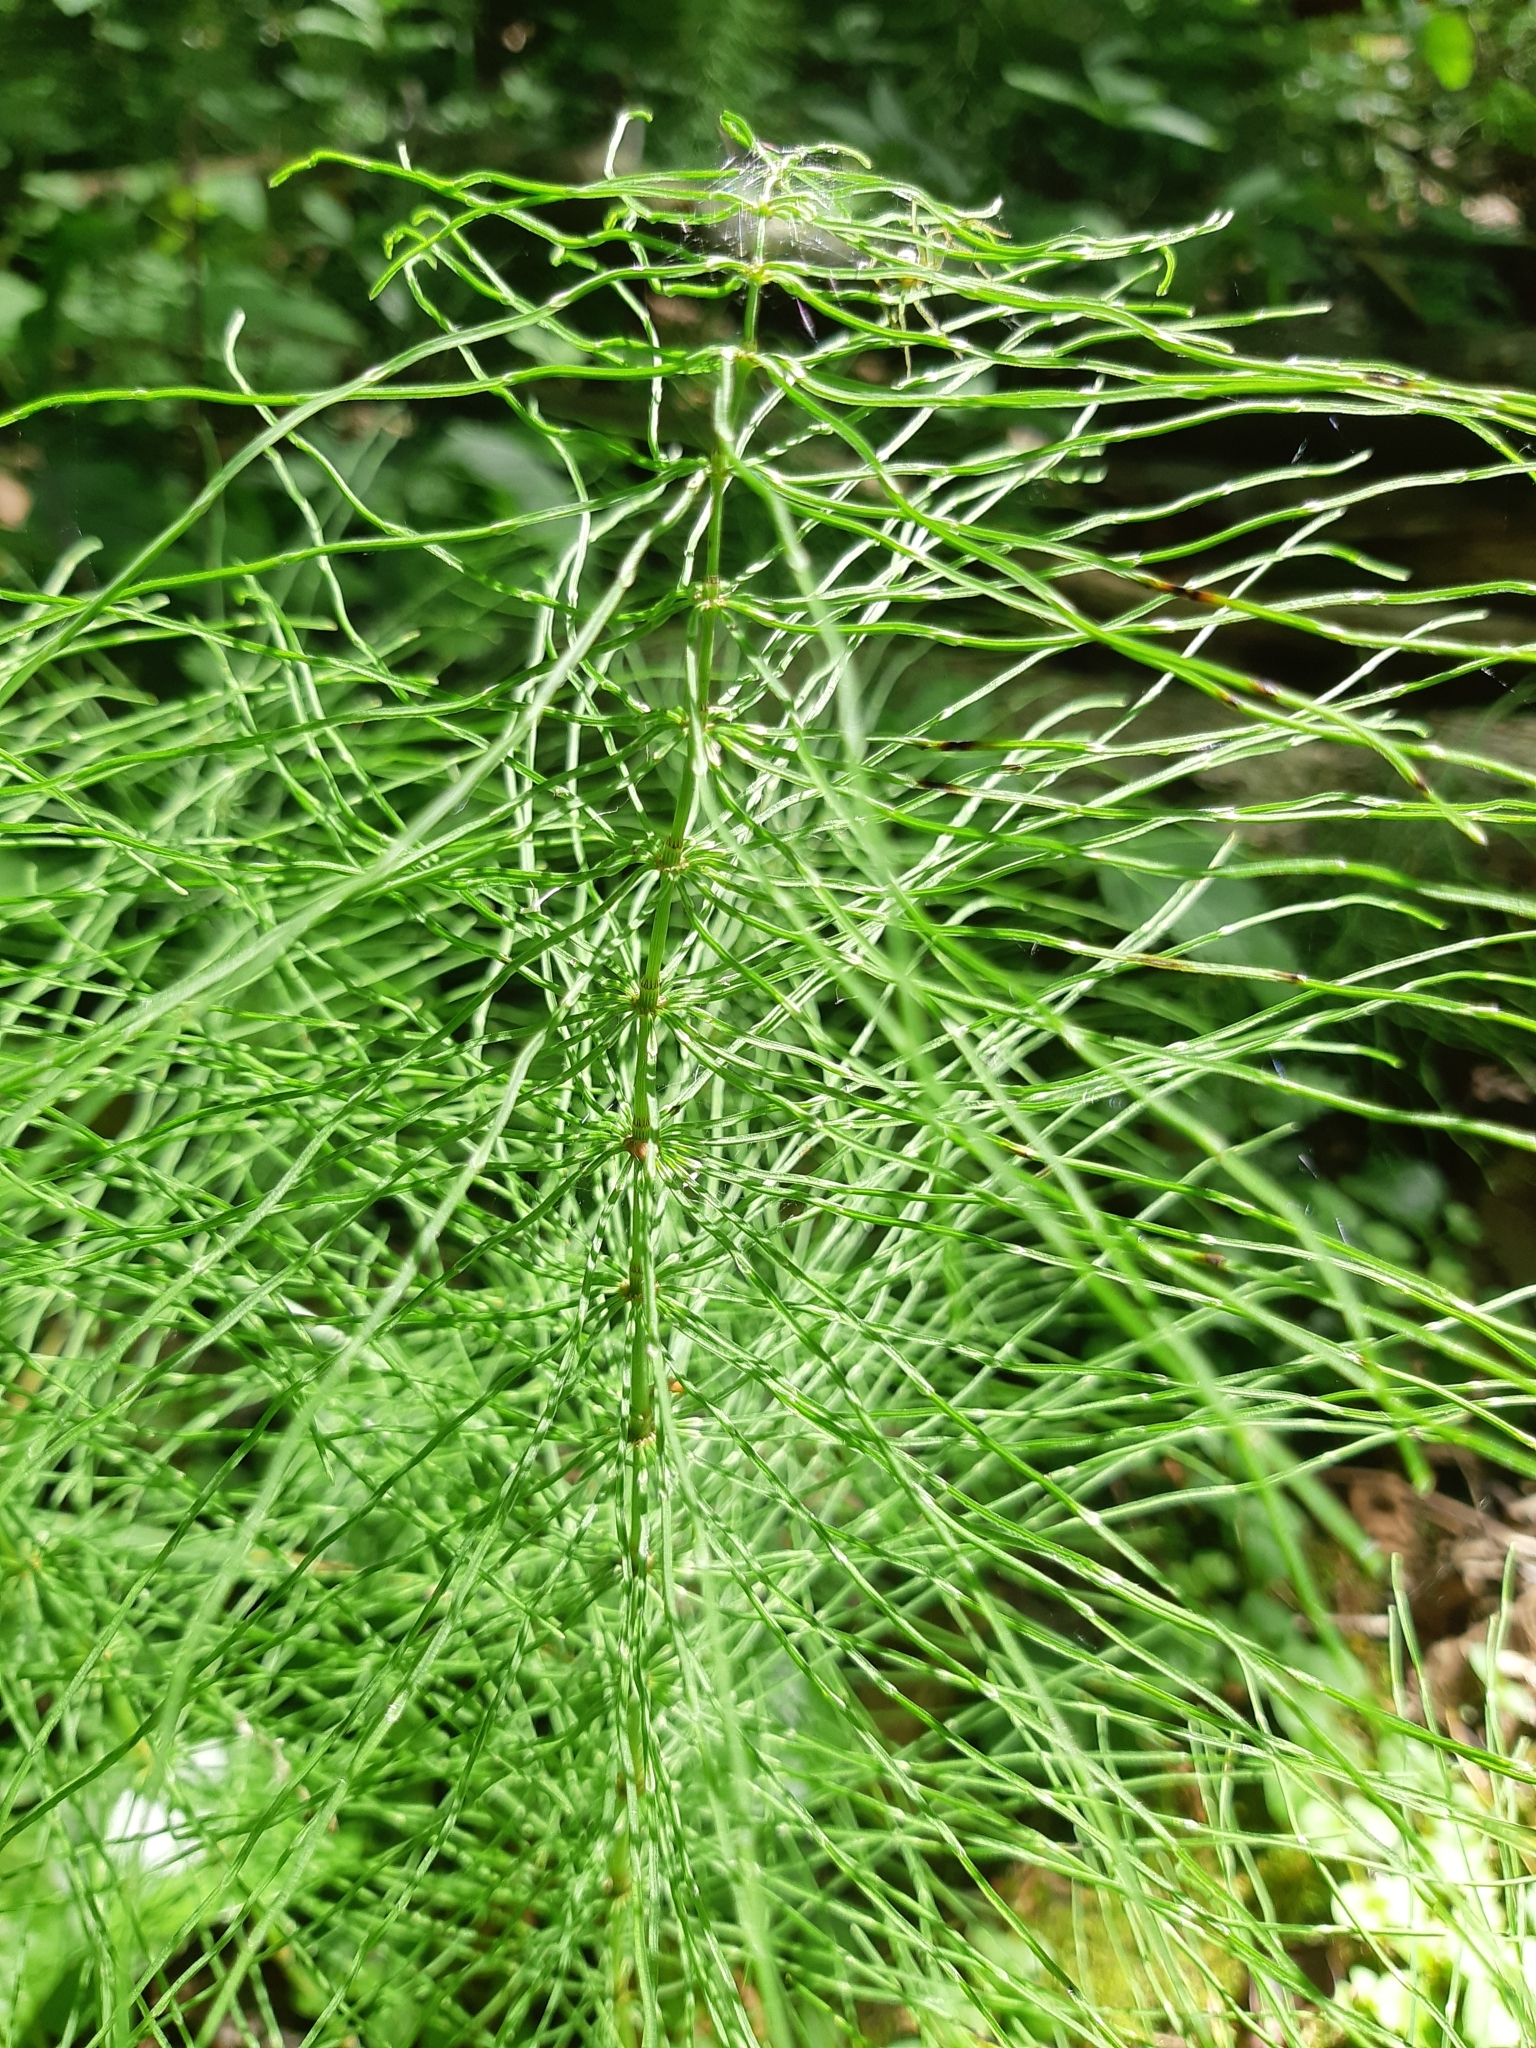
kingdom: Plantae
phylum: Tracheophyta
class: Polypodiopsida
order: Equisetales
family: Equisetaceae
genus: Equisetum
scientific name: Equisetum pratense
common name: Meadow horsetail
